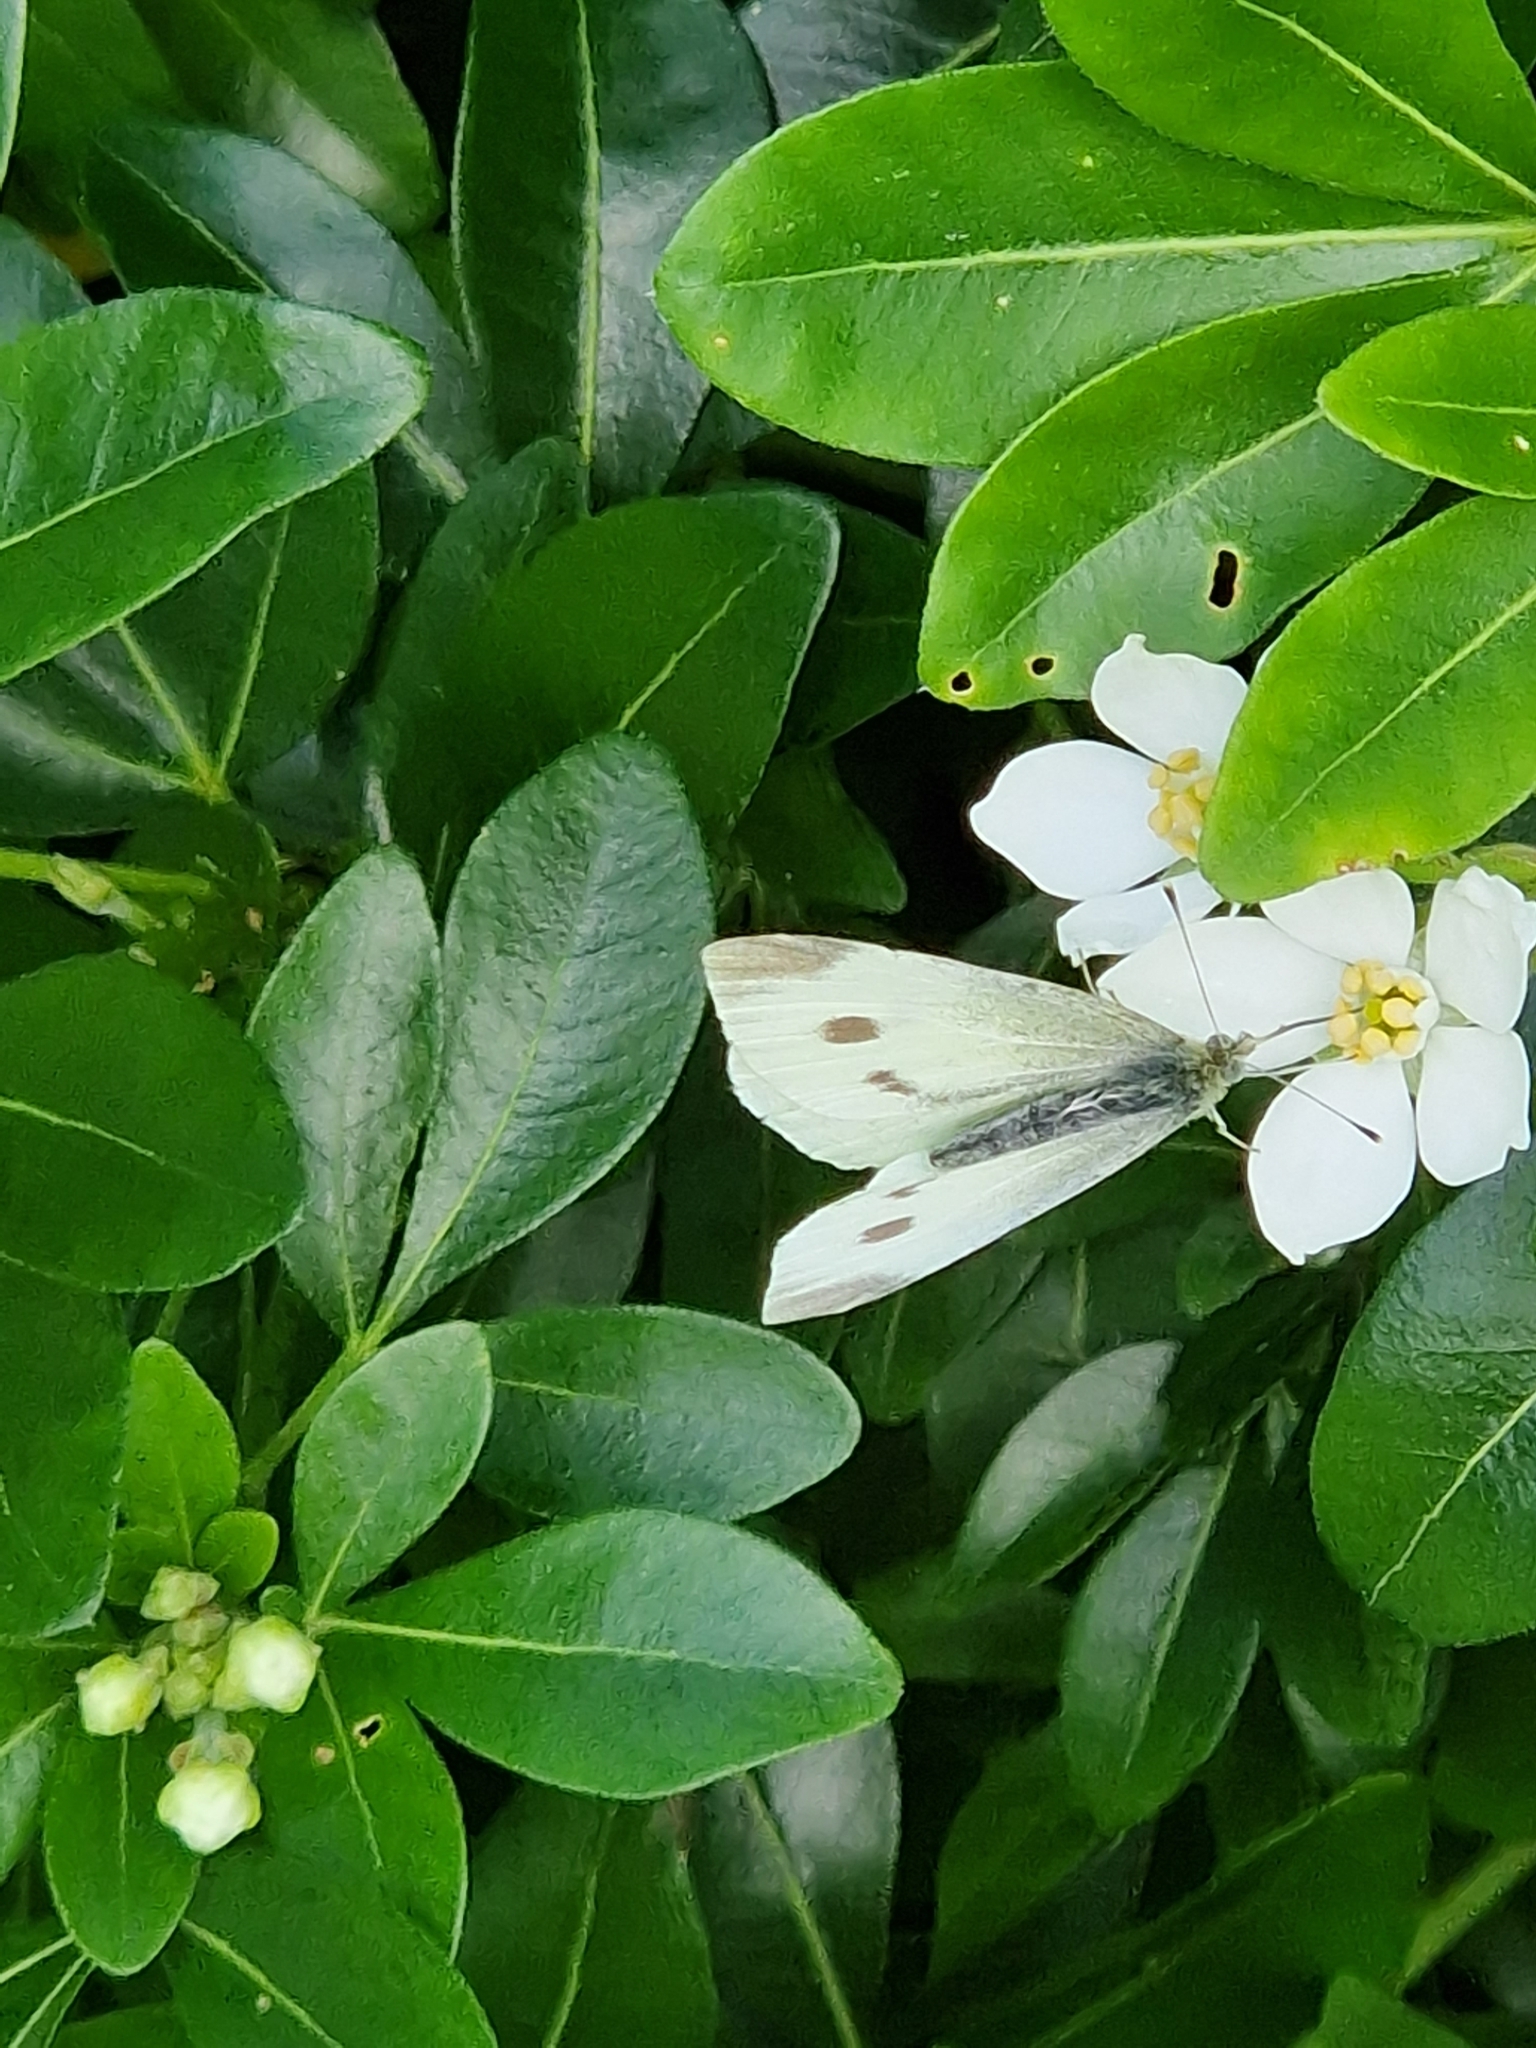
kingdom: Animalia
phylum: Arthropoda
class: Insecta
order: Lepidoptera
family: Pieridae
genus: Pieris
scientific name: Pieris rapae
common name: Small white
